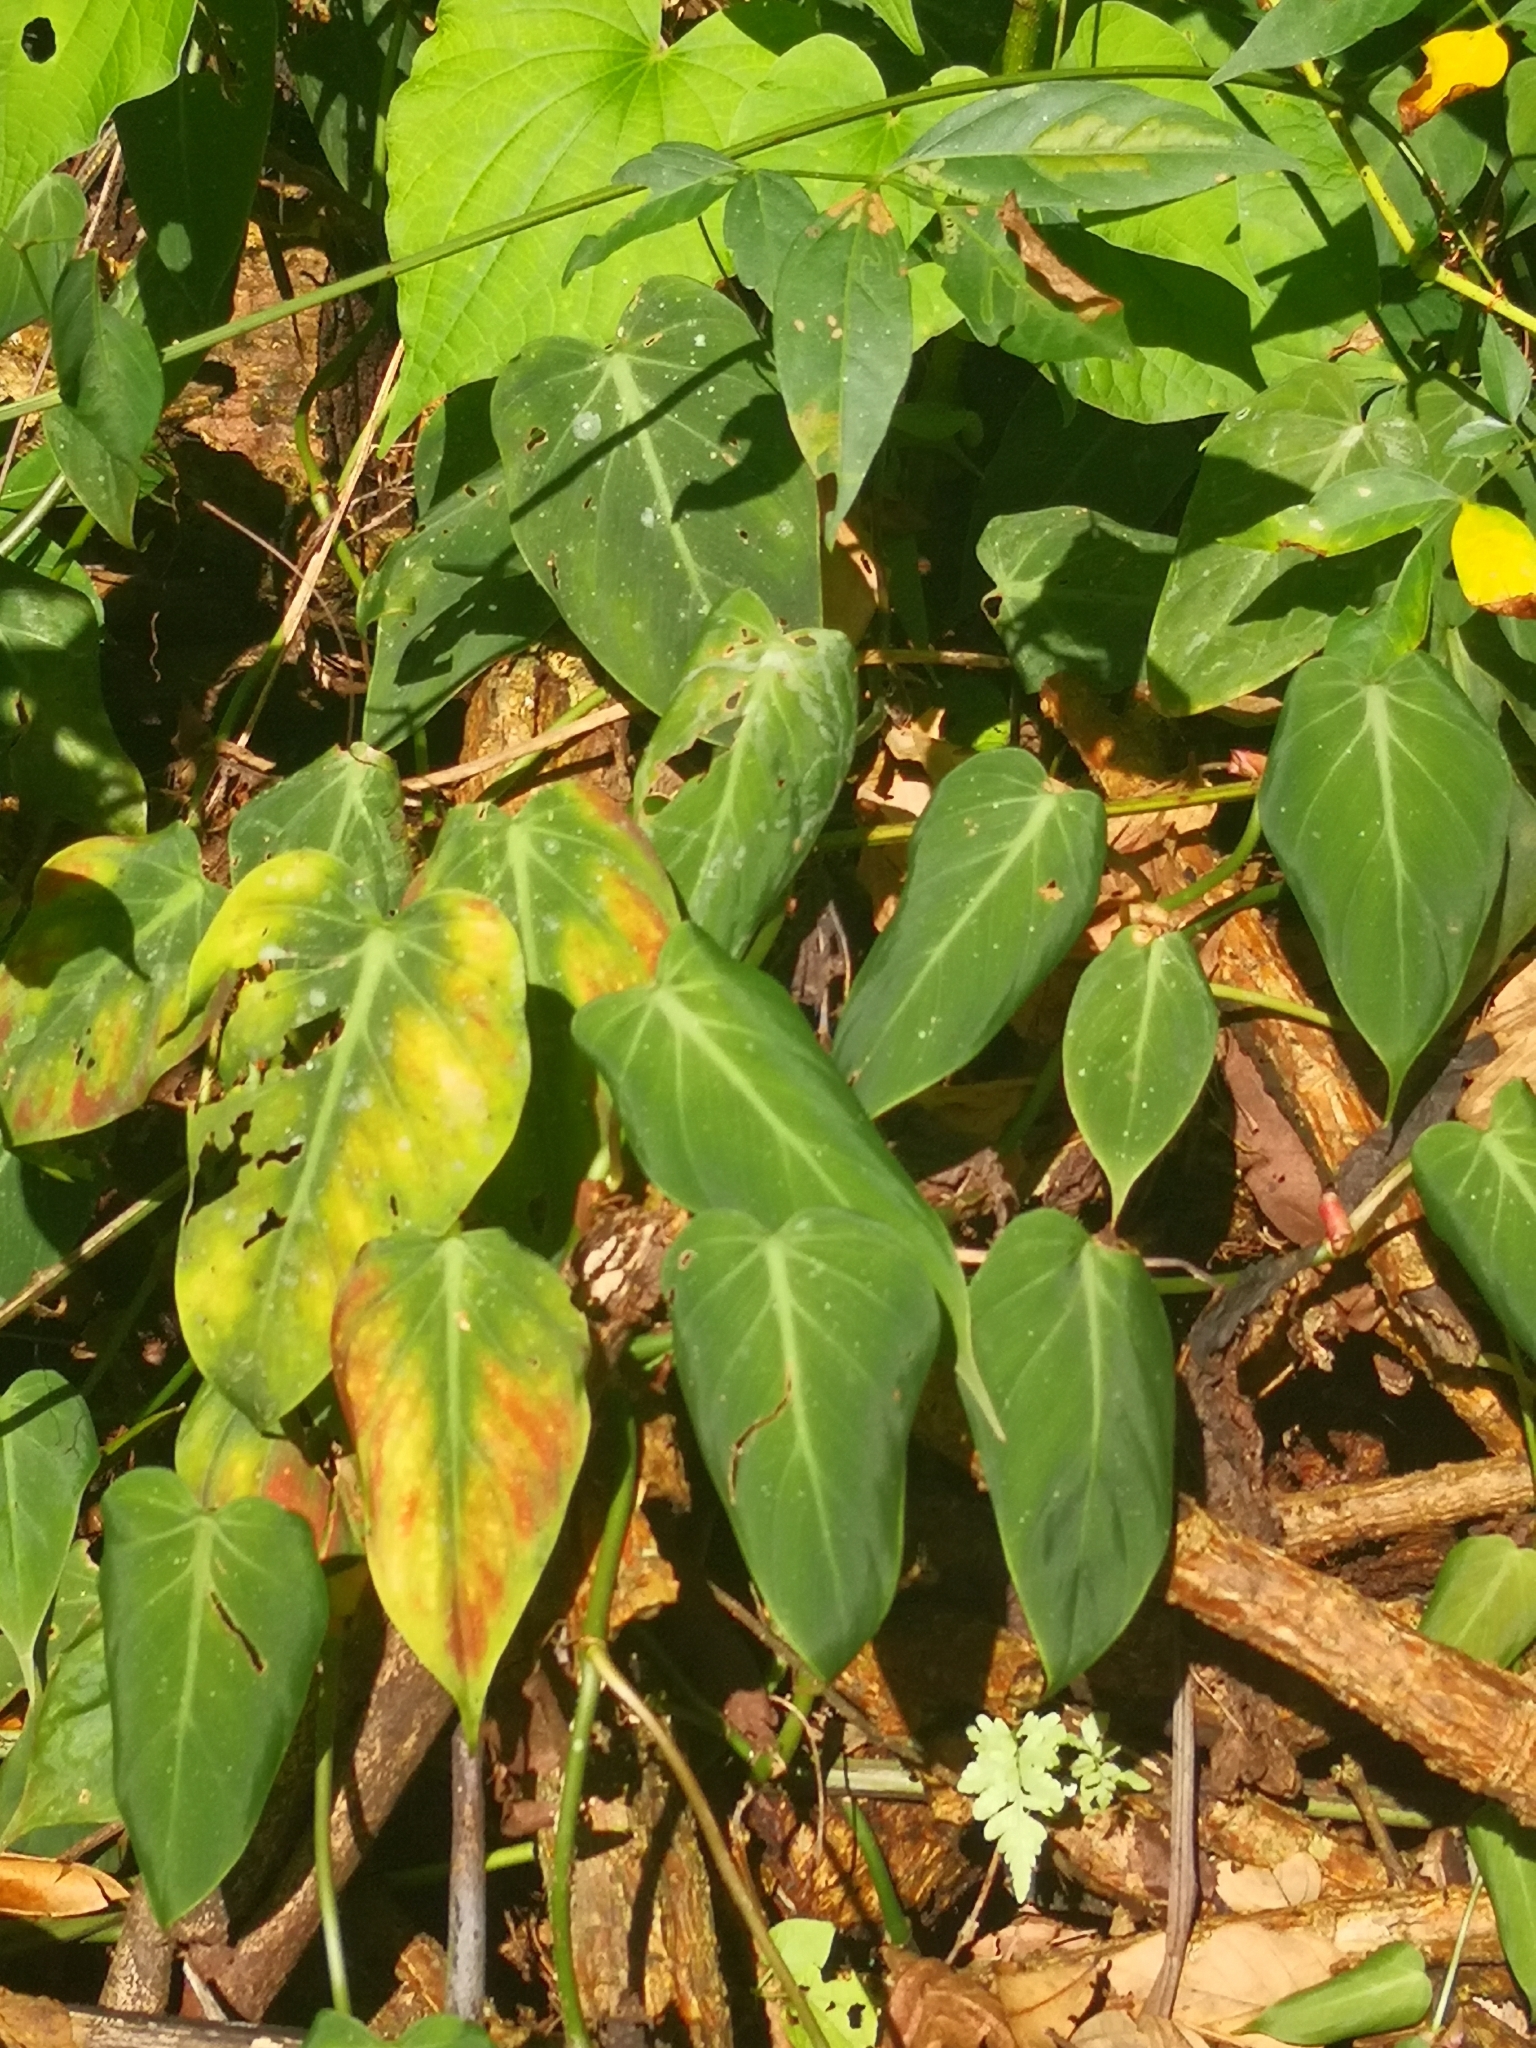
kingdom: Plantae
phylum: Tracheophyta
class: Liliopsida
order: Alismatales
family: Araceae
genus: Philodendron
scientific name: Philodendron hederaceum
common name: Vilevine
